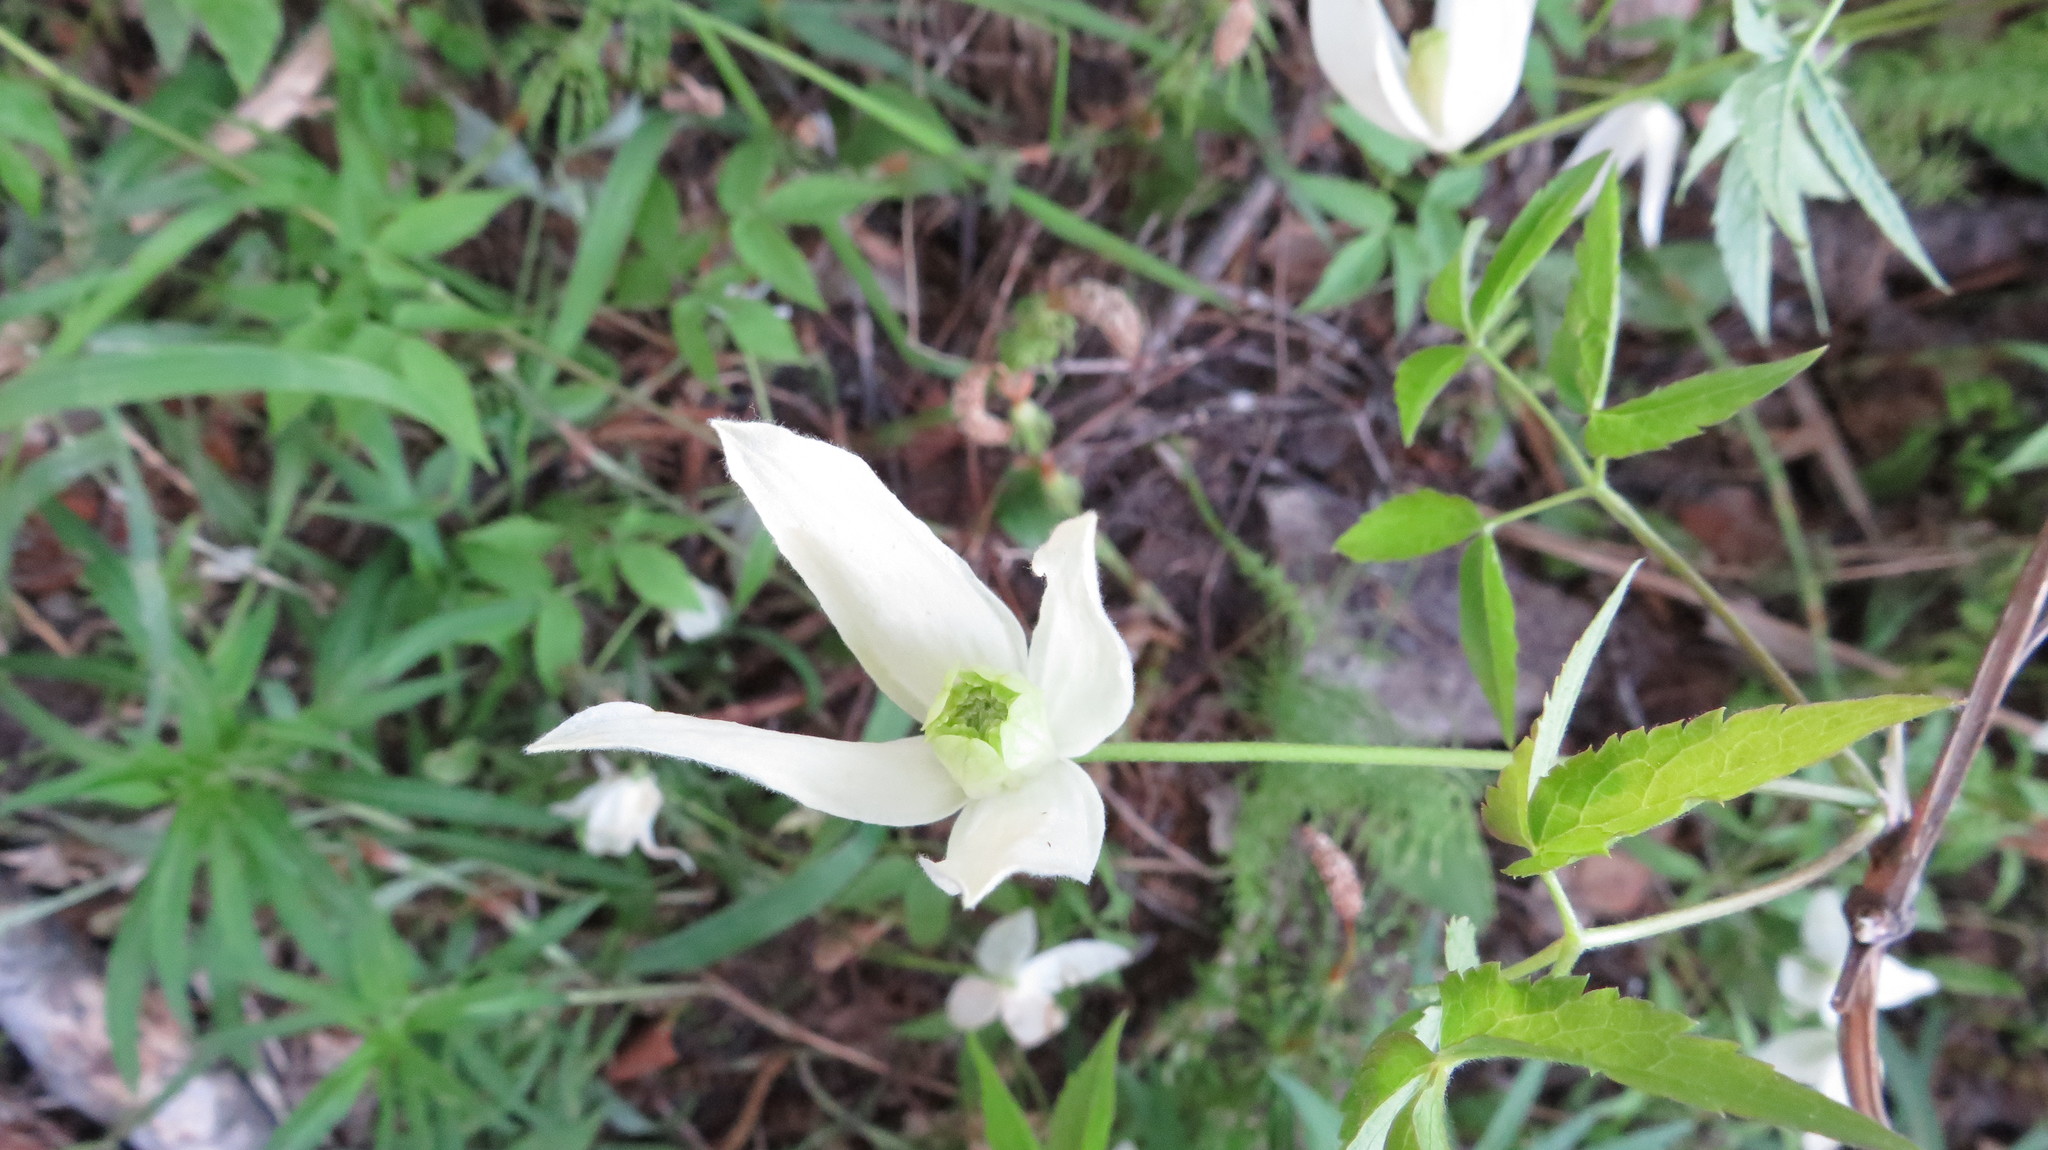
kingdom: Plantae
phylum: Tracheophyta
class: Magnoliopsida
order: Ranunculales
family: Ranunculaceae
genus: Clematis
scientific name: Clematis sibirica
